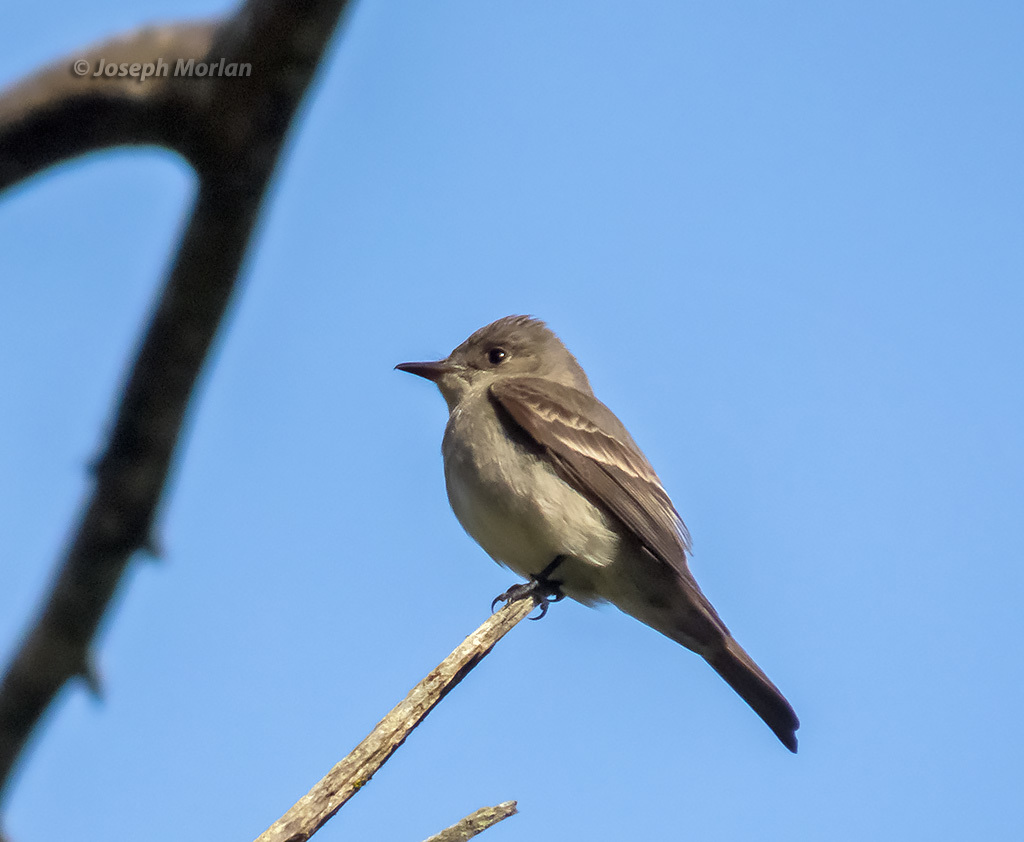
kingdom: Animalia
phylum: Chordata
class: Aves
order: Passeriformes
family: Tyrannidae
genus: Contopus
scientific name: Contopus sordidulus
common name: Western wood-pewee
